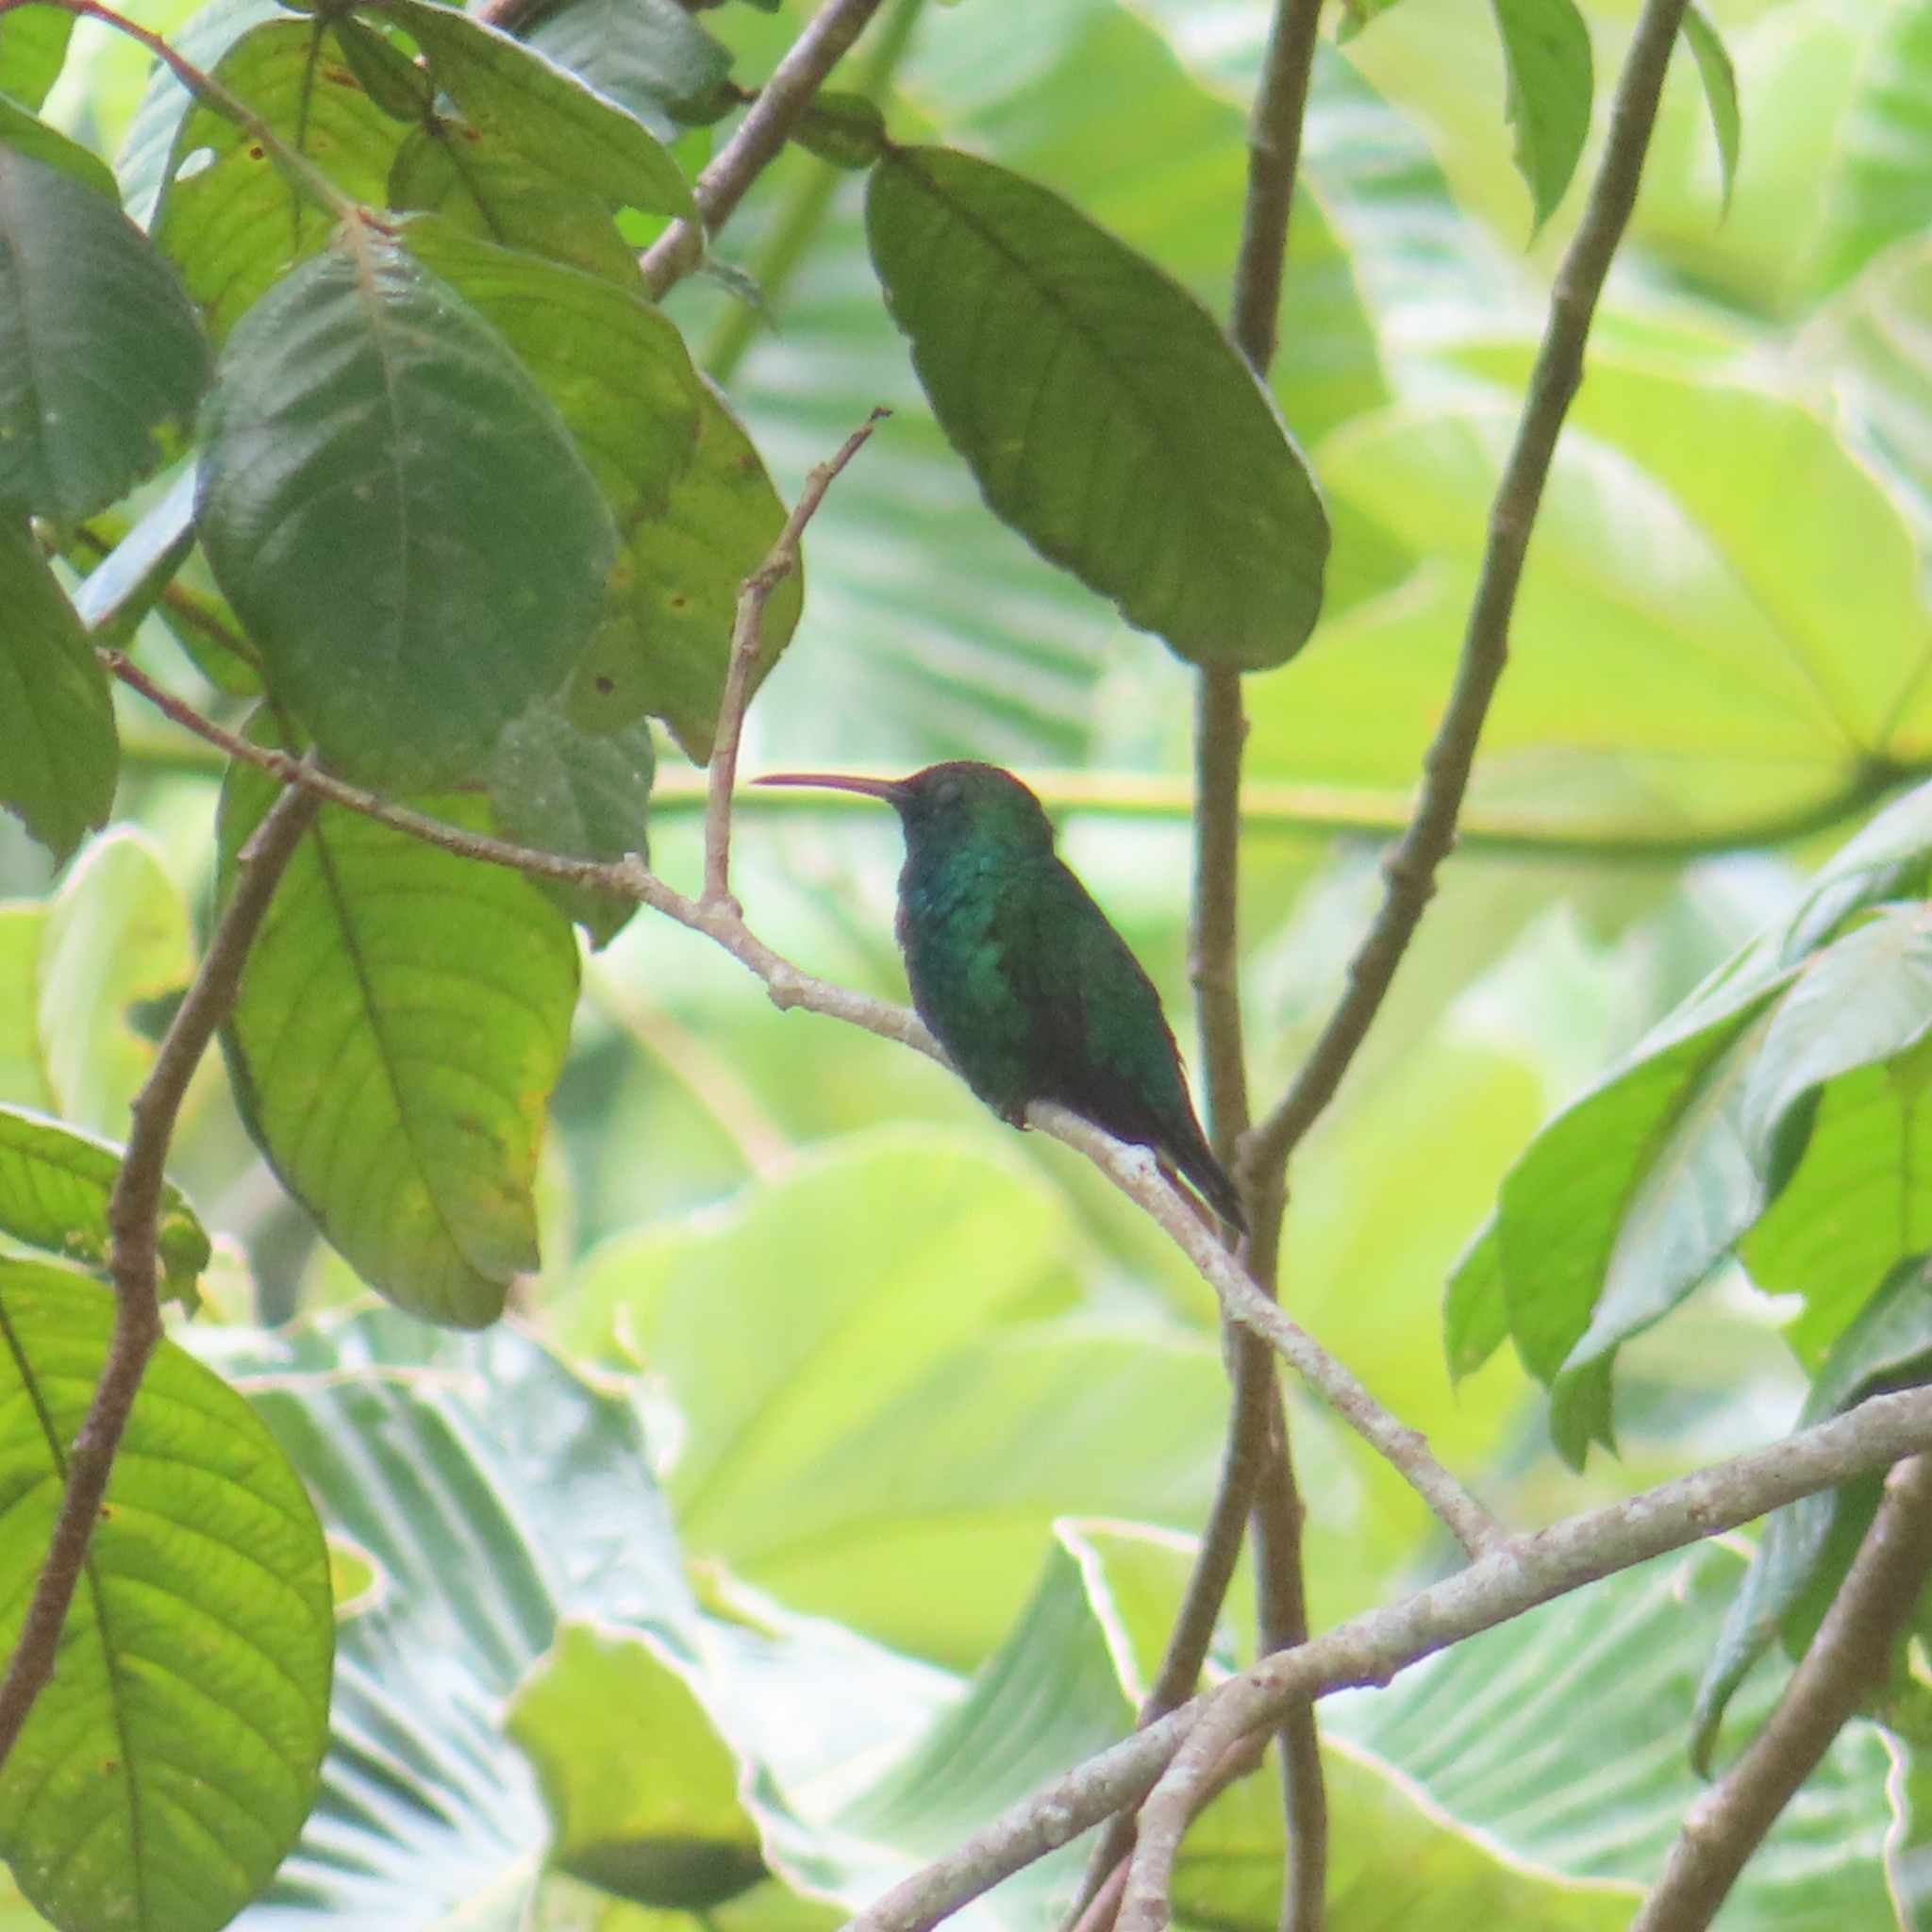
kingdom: Animalia
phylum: Chordata
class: Aves
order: Apodiformes
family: Trochilidae
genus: Anthracothorax
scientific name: Anthracothorax viridis
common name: Green mango
